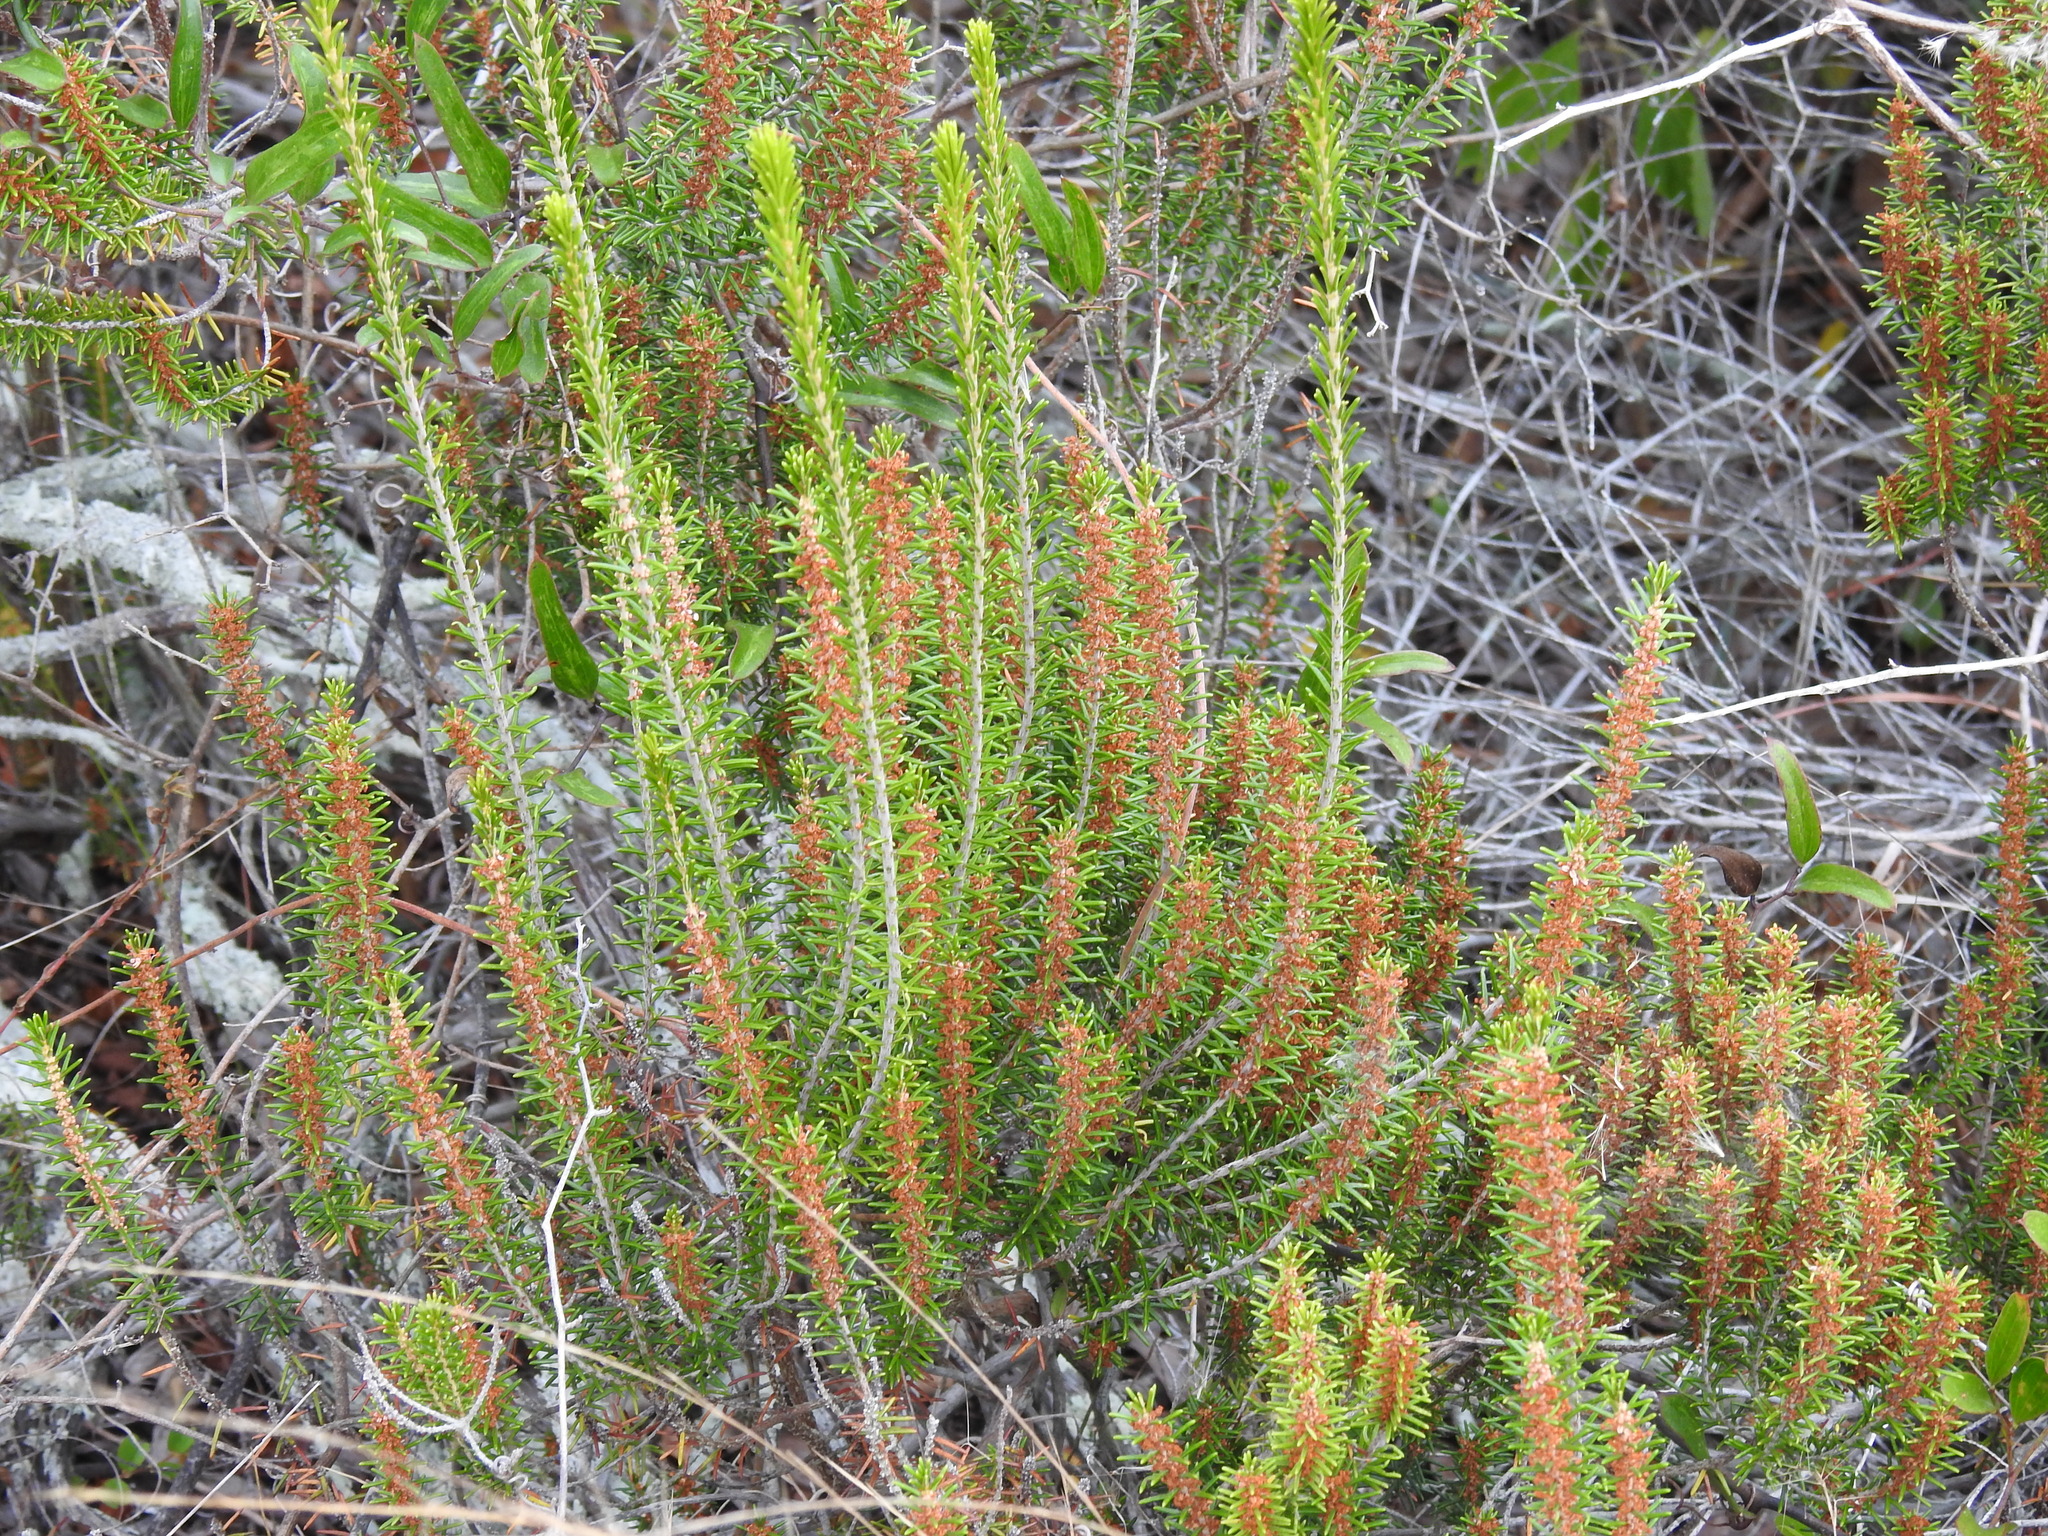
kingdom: Plantae
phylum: Tracheophyta
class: Magnoliopsida
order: Ericales
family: Ericaceae
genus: Ceratiola
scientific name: Ceratiola ericoides
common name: Sandhill-rosemary
